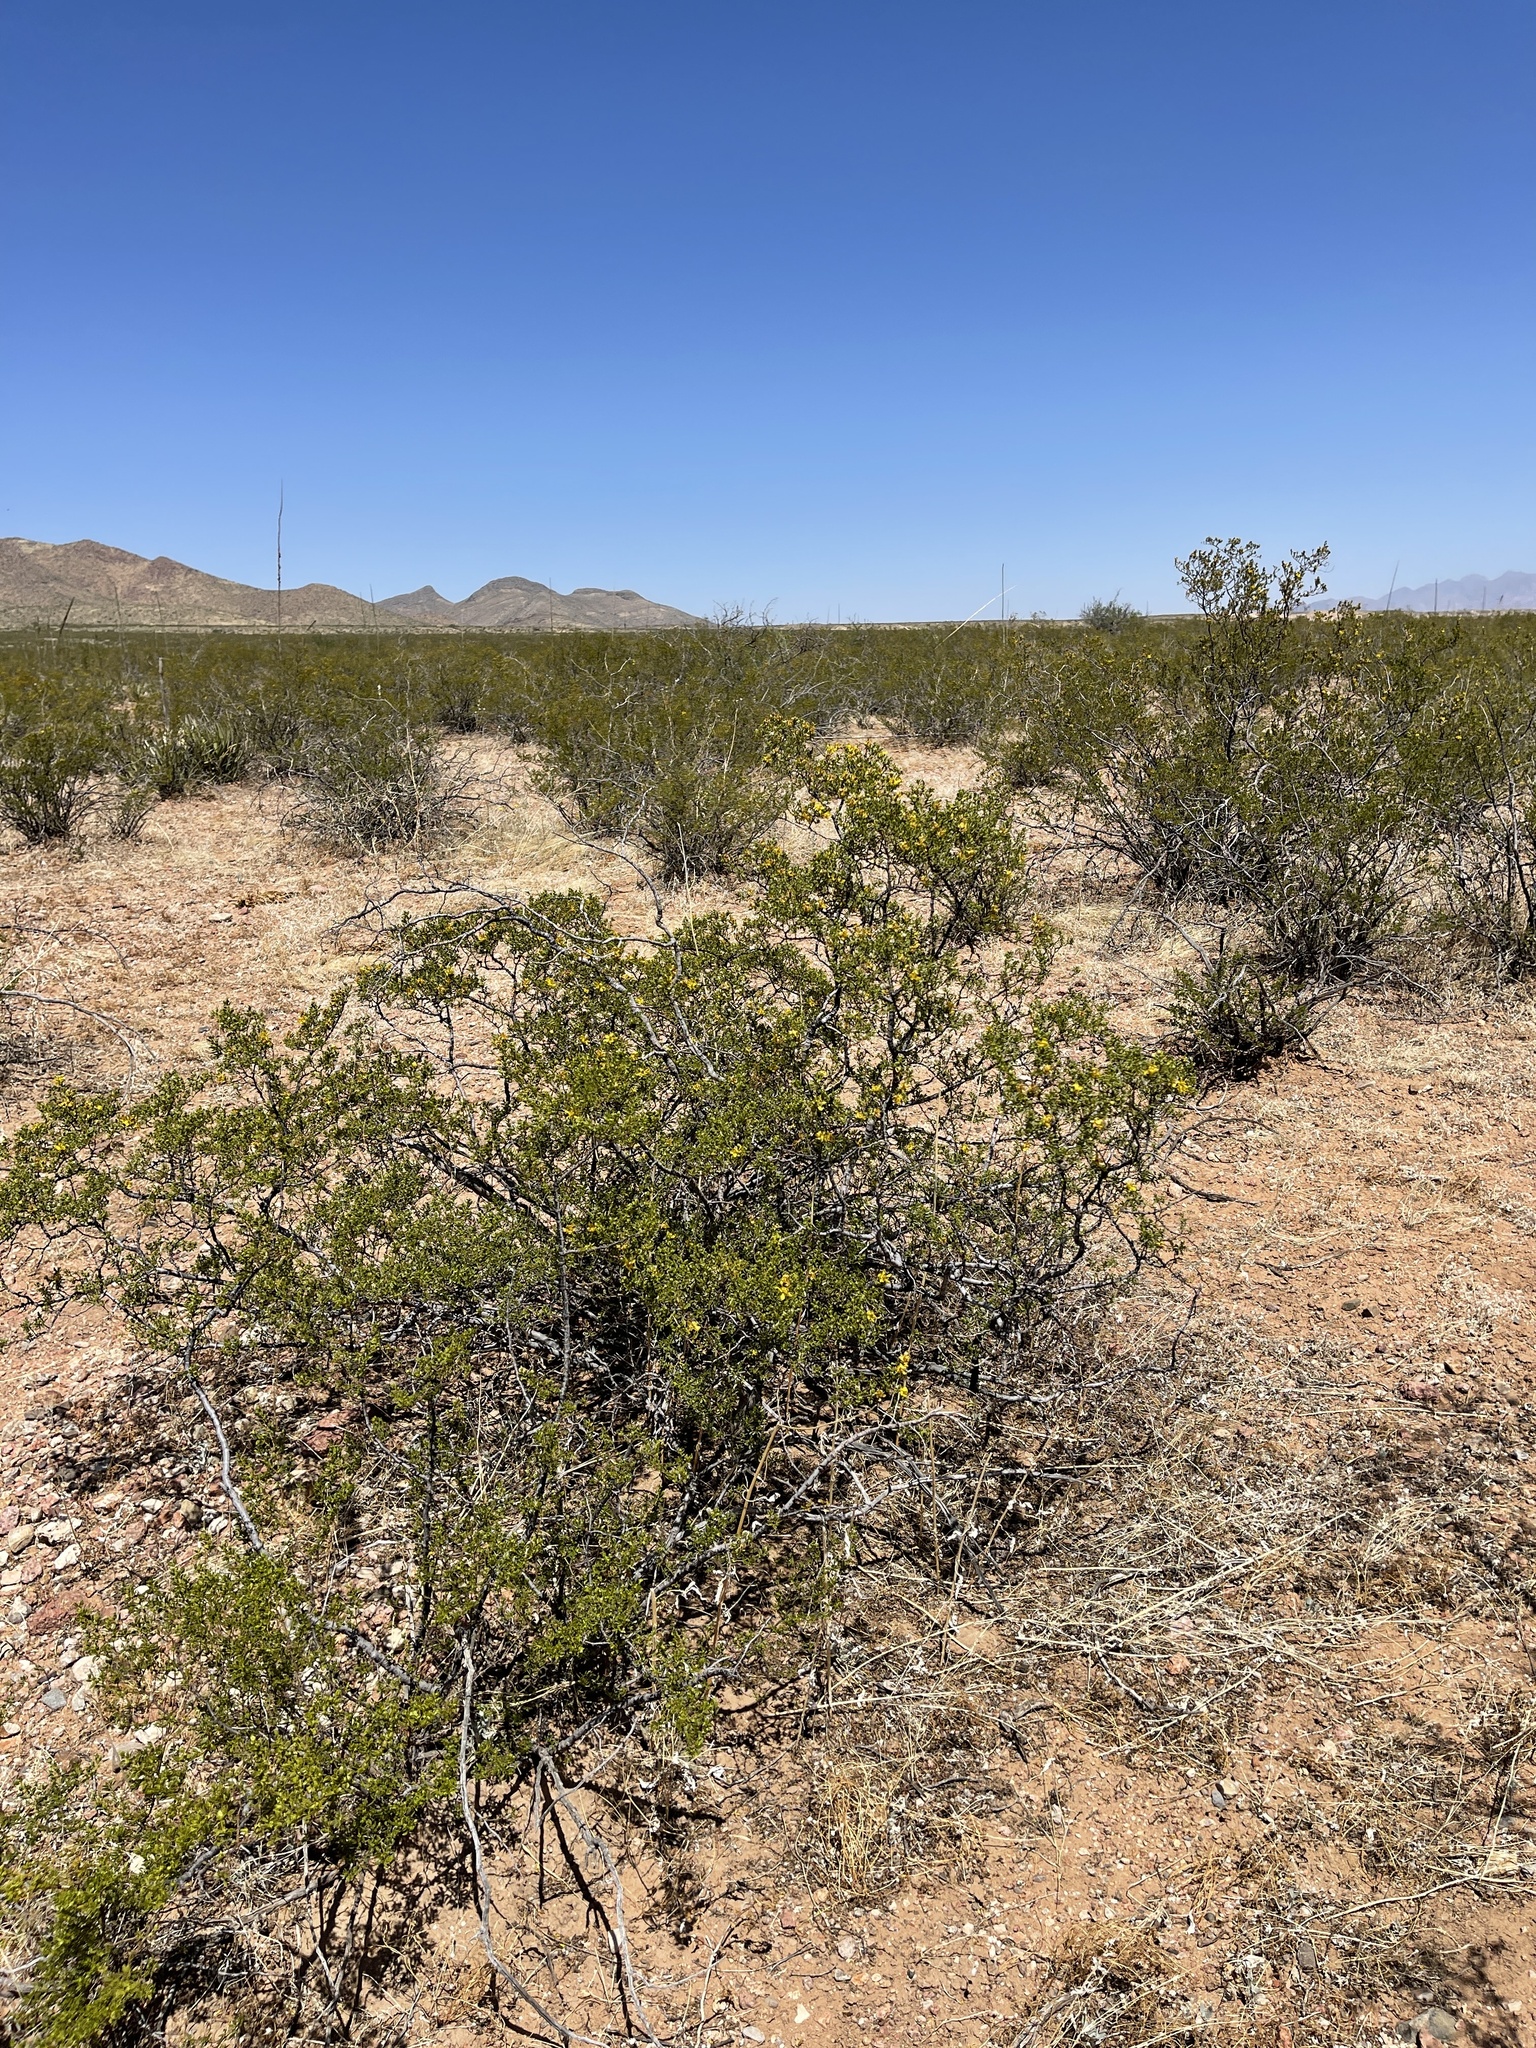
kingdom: Plantae
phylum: Tracheophyta
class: Magnoliopsida
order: Zygophyllales
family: Zygophyllaceae
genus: Larrea
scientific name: Larrea tridentata
